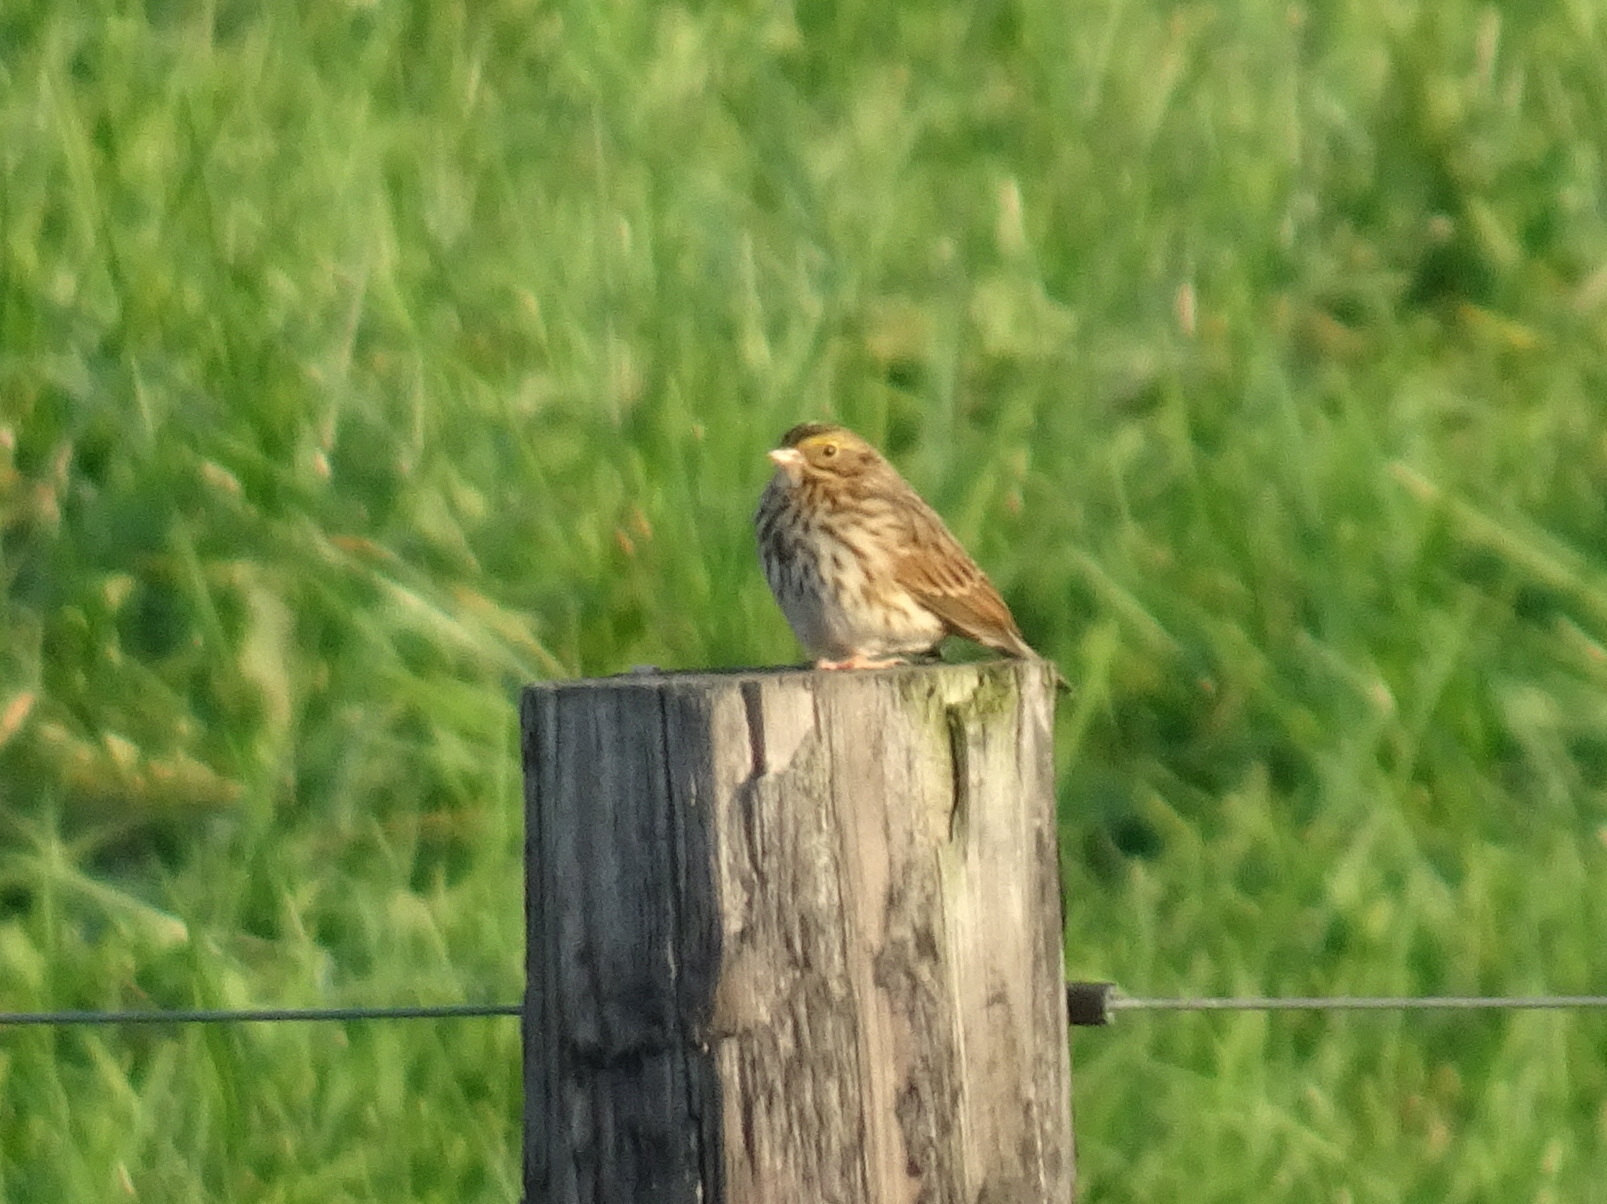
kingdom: Animalia
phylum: Chordata
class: Aves
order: Passeriformes
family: Passerellidae
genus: Passerculus
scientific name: Passerculus sandwichensis
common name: Savannah sparrow
